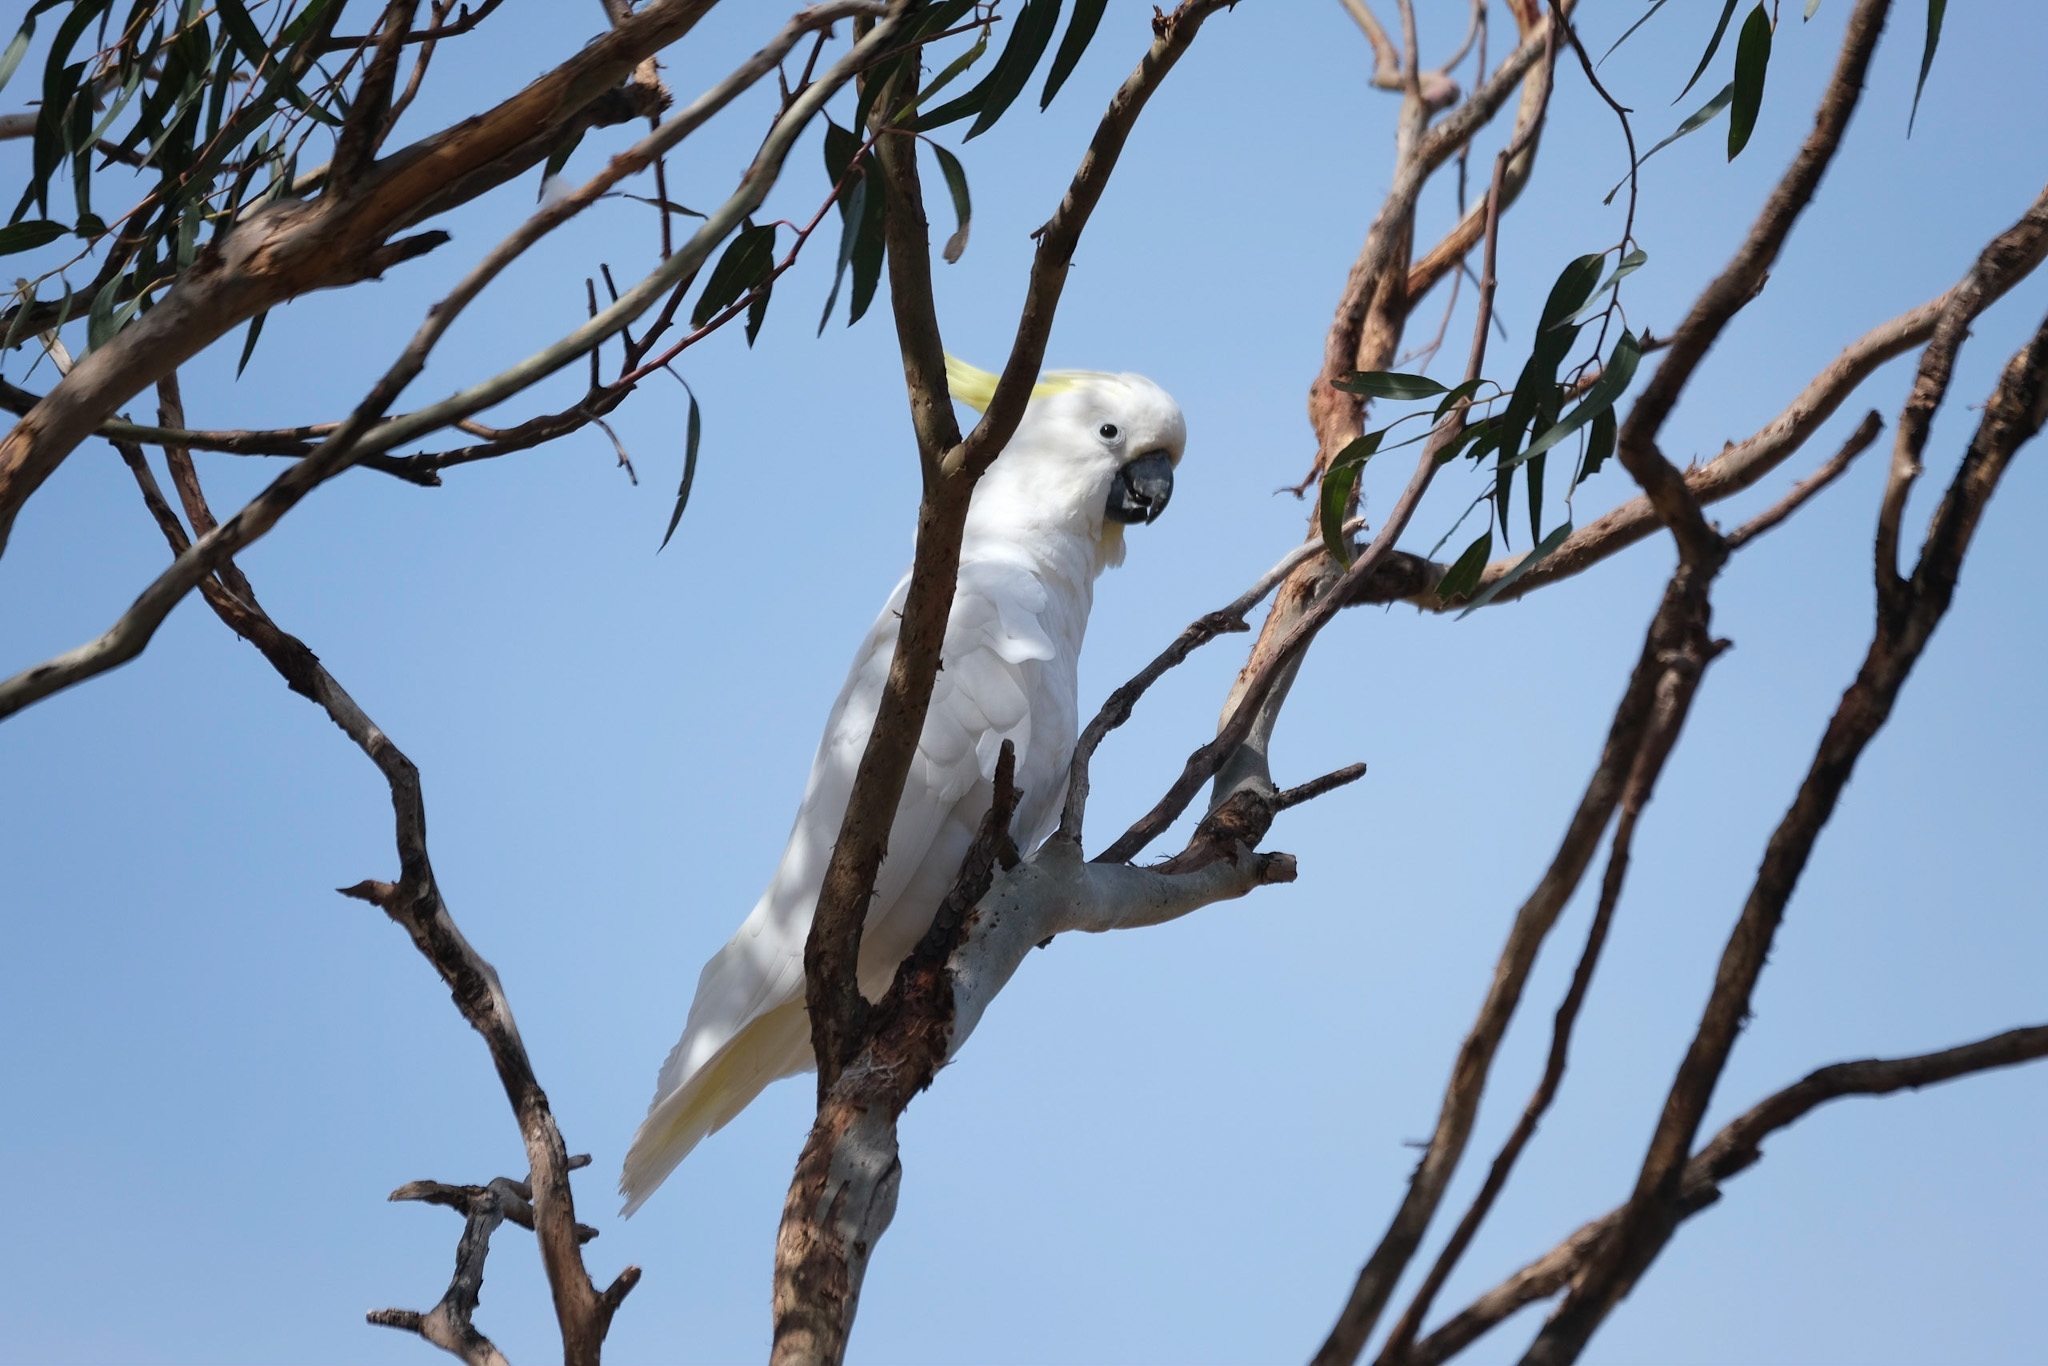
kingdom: Animalia
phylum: Chordata
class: Aves
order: Psittaciformes
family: Psittacidae
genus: Cacatua
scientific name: Cacatua galerita
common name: Sulphur-crested cockatoo
